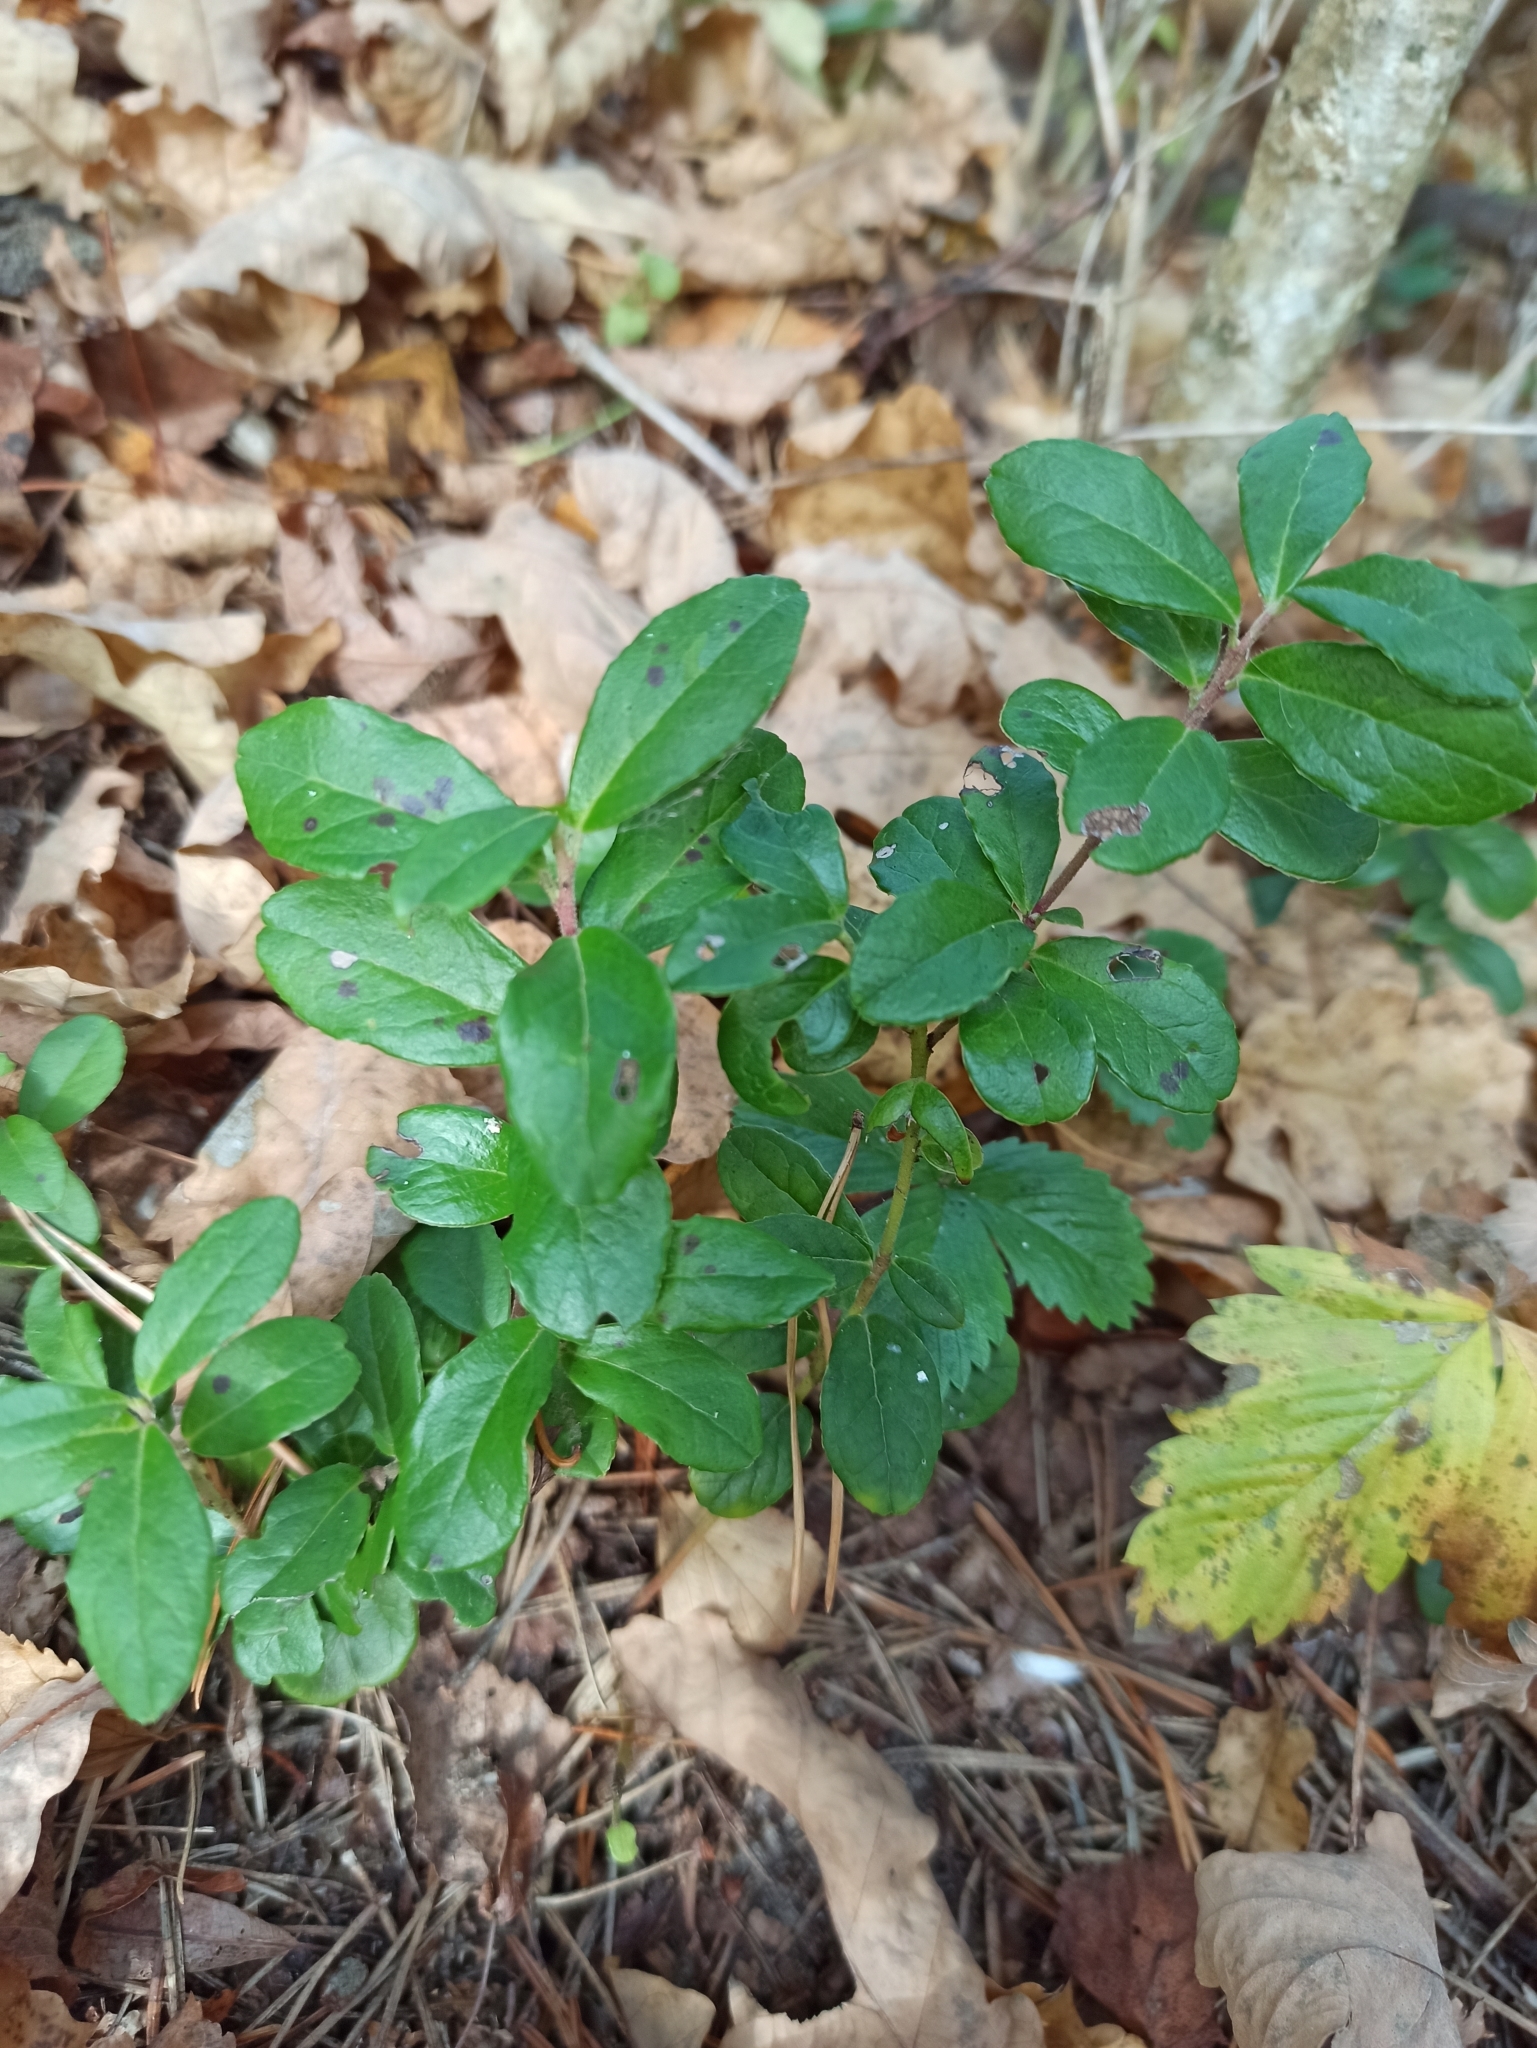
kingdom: Plantae
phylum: Tracheophyta
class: Magnoliopsida
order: Ericales
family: Ericaceae
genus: Vaccinium
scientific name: Vaccinium vitis-idaea
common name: Cowberry
